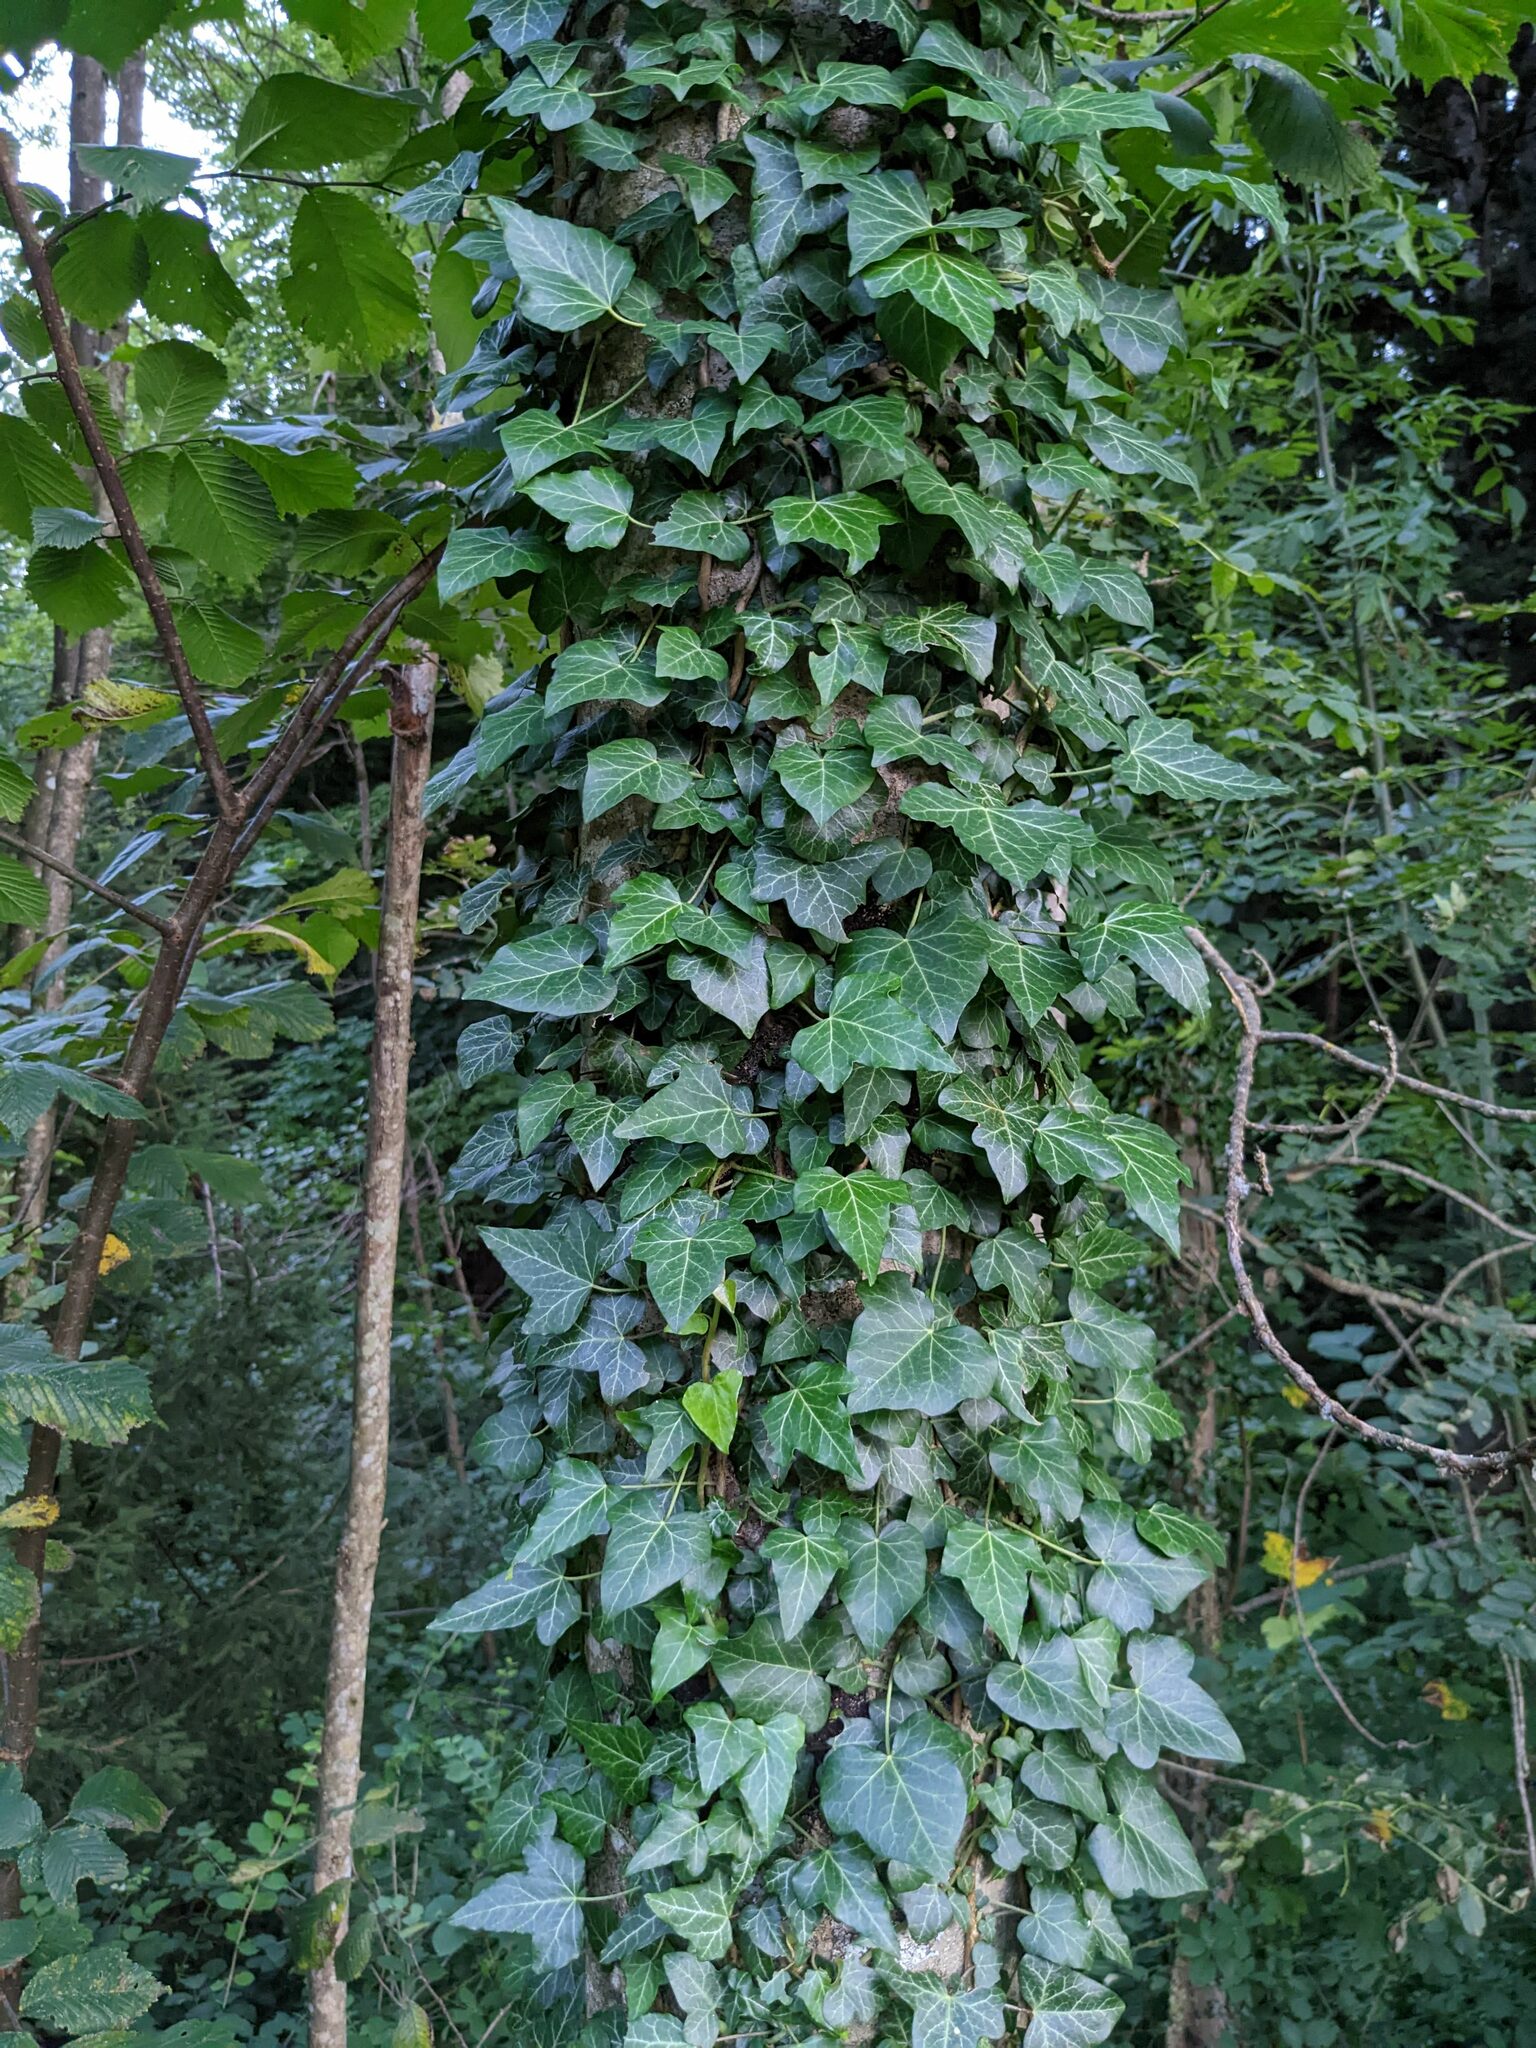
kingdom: Plantae
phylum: Tracheophyta
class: Magnoliopsida
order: Apiales
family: Araliaceae
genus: Hedera
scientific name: Hedera helix
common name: Ivy
